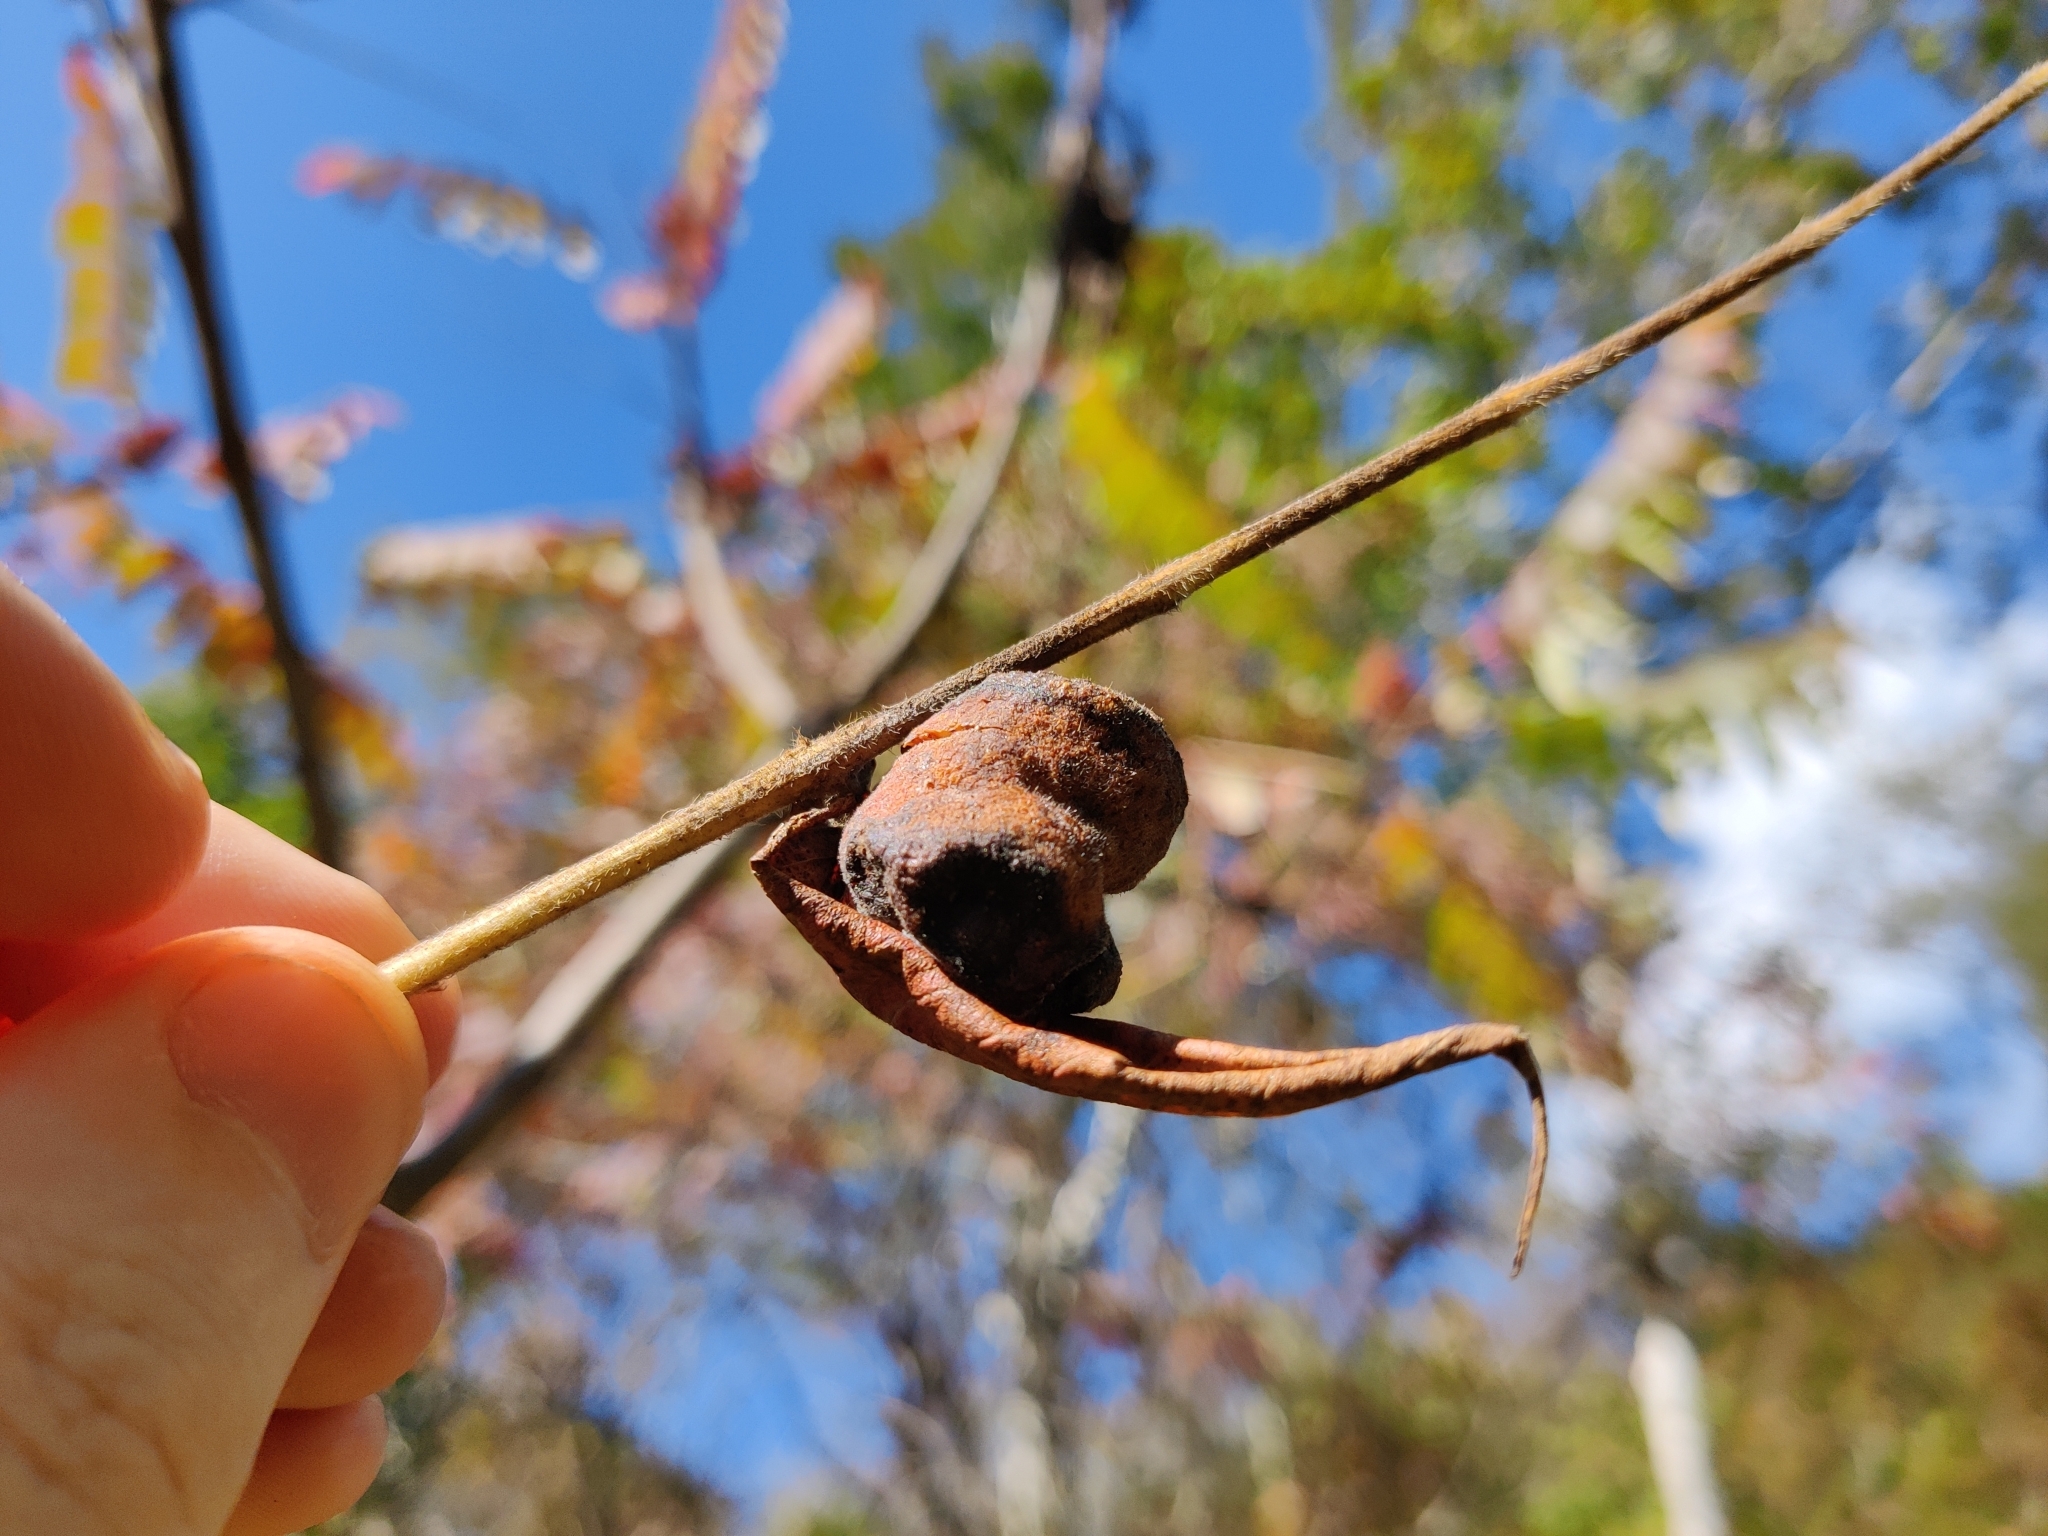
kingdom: Animalia
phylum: Arthropoda
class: Insecta
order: Hemiptera
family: Aphididae
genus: Melaphis
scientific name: Melaphis rhois
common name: Sumac gall aphid
